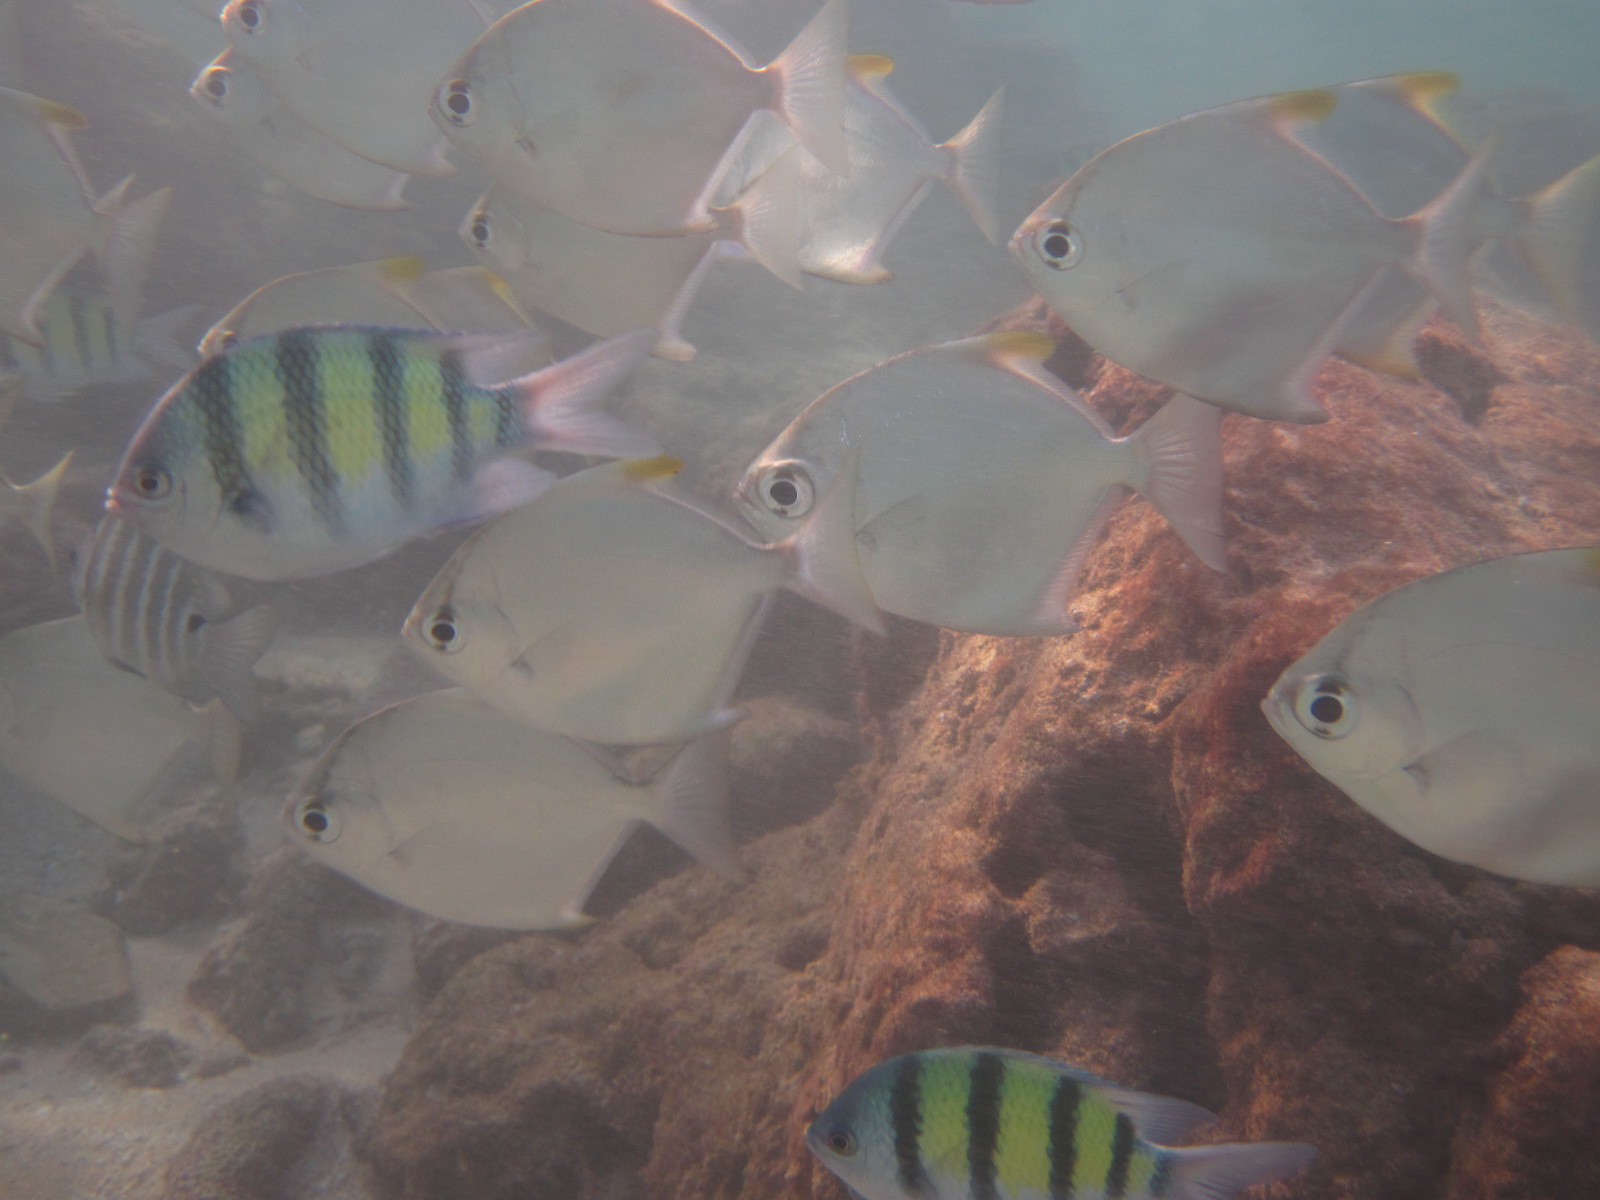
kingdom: Animalia
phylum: Chordata
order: Perciformes
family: Monodactylidae
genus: Monodactylus
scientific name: Monodactylus argenteus
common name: Silver moony
